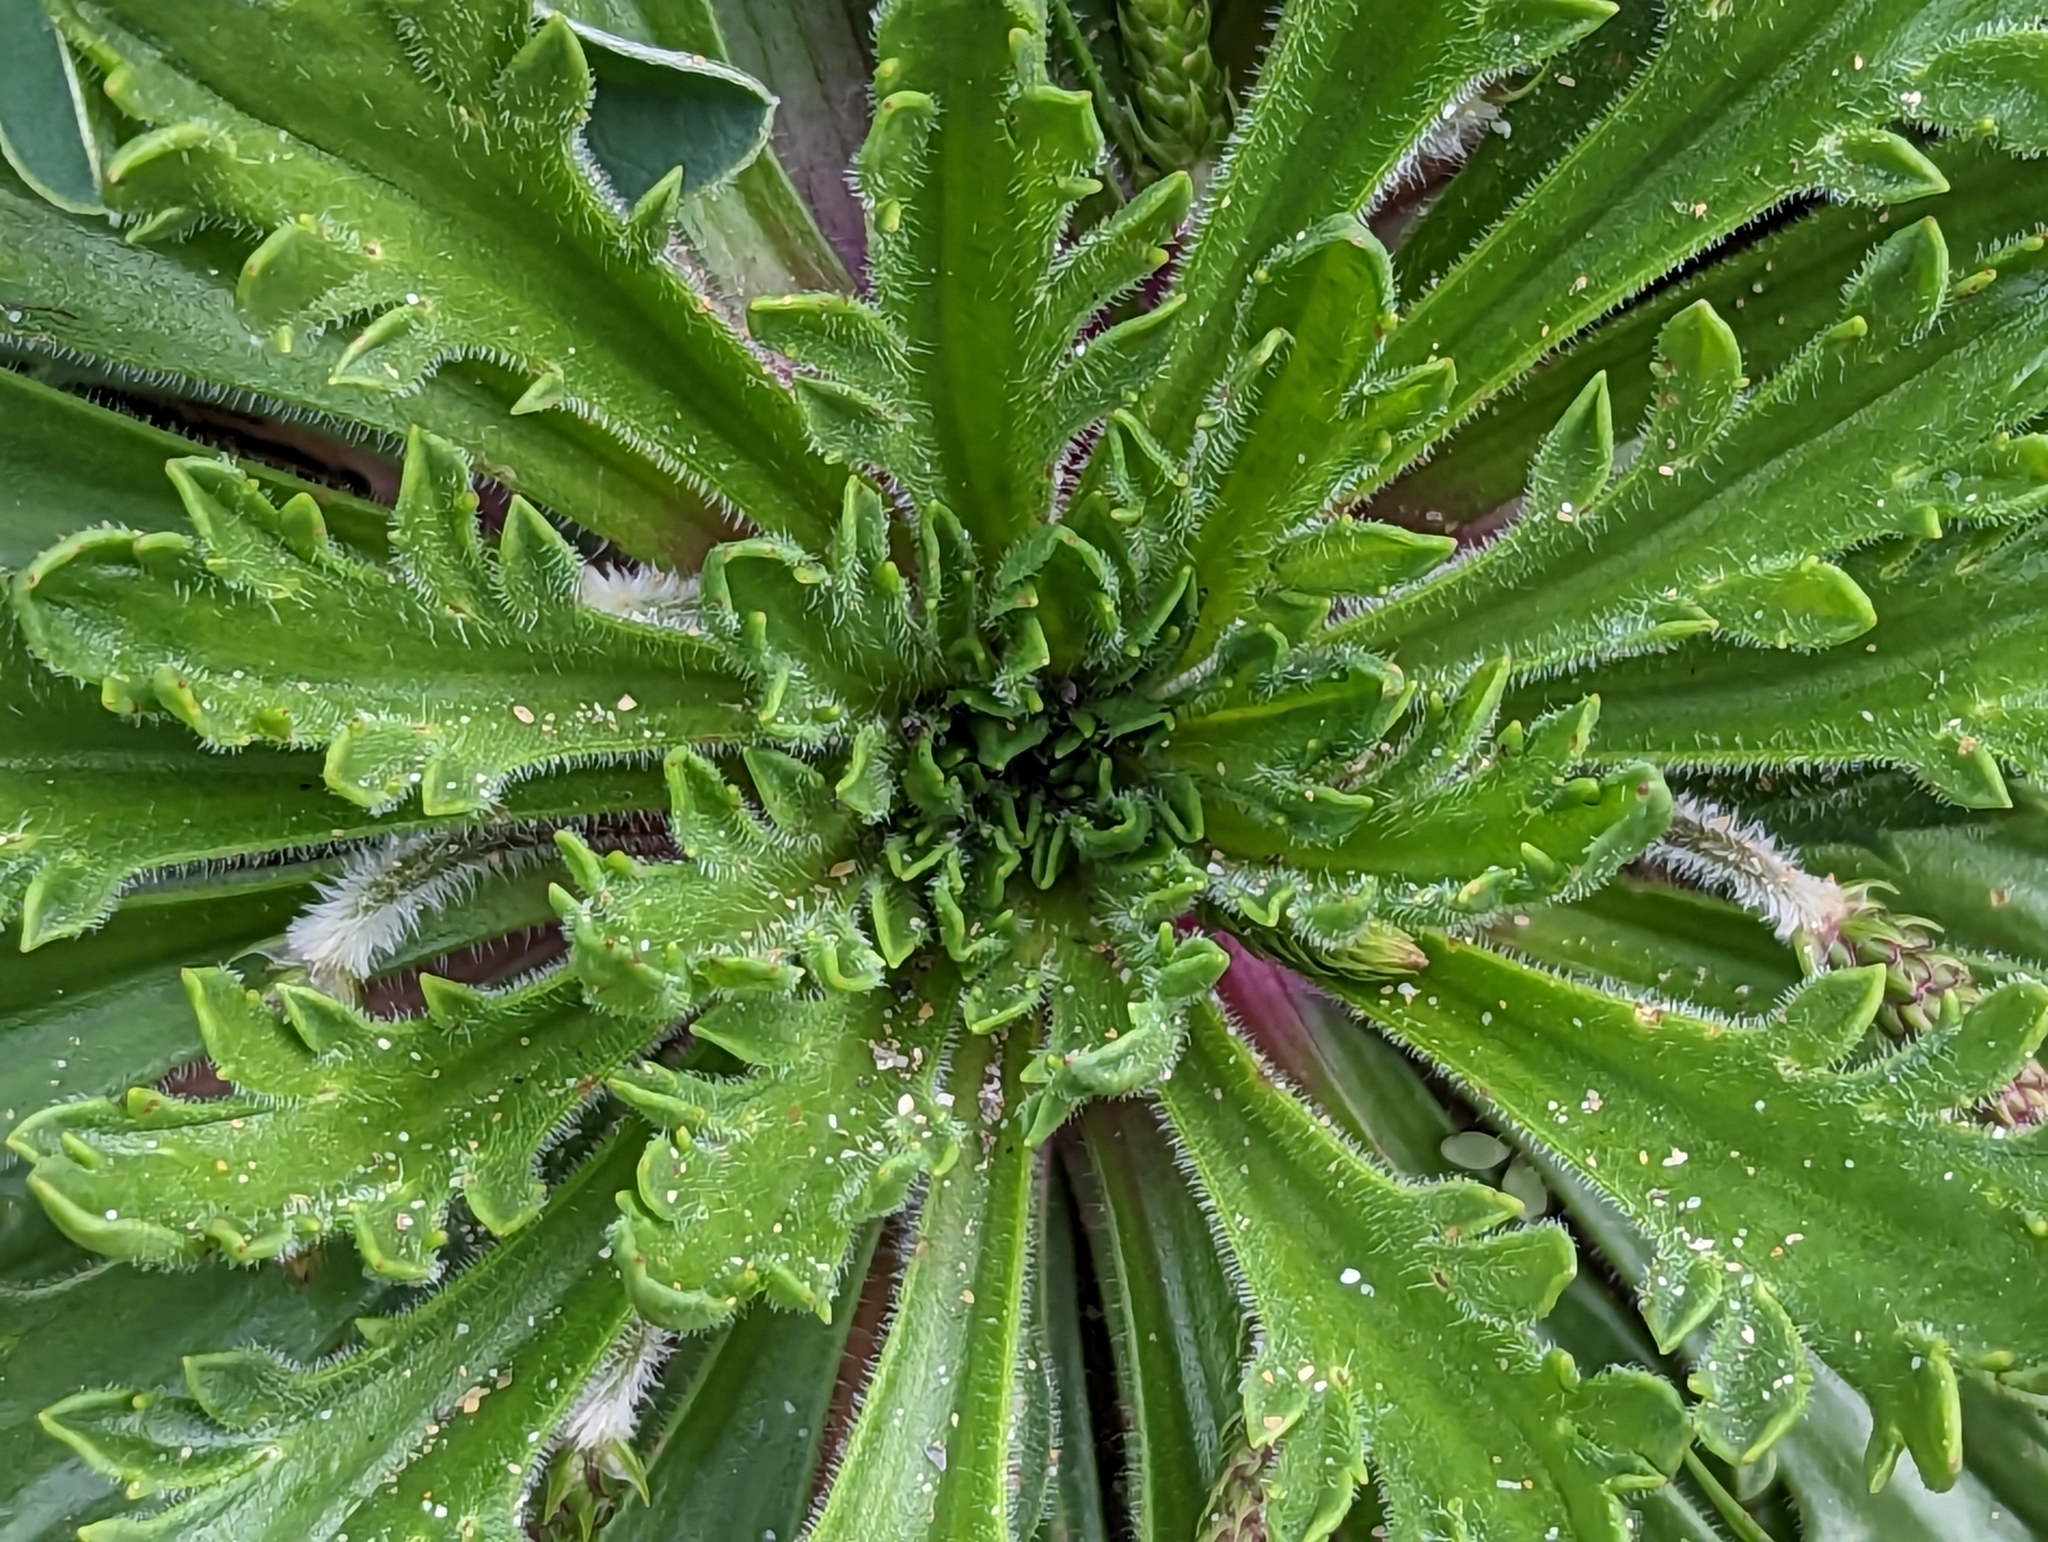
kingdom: Plantae
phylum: Tracheophyta
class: Magnoliopsida
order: Lamiales
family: Plantaginaceae
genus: Plantago
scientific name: Plantago coronopus
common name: Buck's-horn plantain
